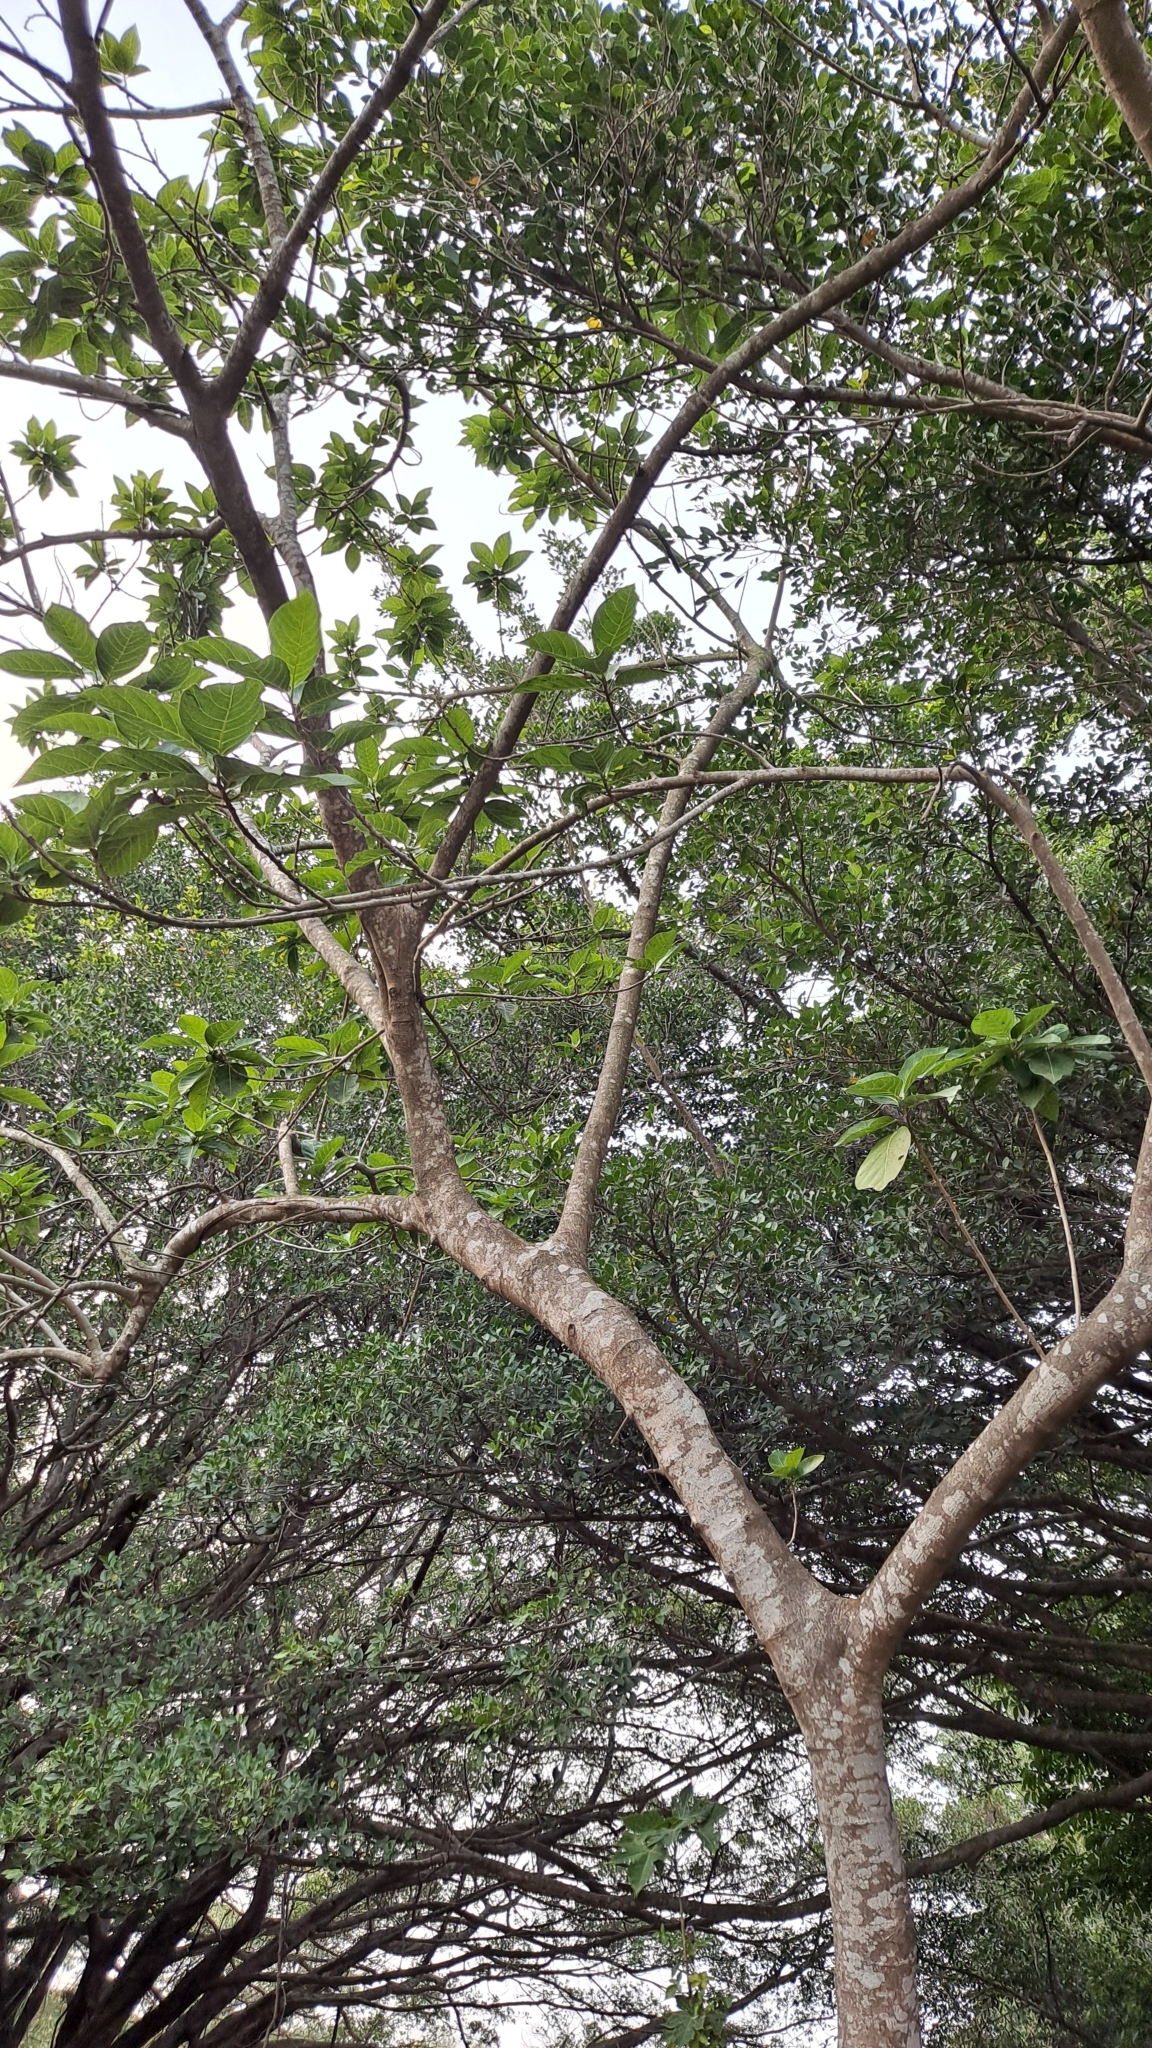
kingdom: Plantae
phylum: Tracheophyta
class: Magnoliopsida
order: Rosales
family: Moraceae
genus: Ficus
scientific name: Ficus septica
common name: Septic fig
